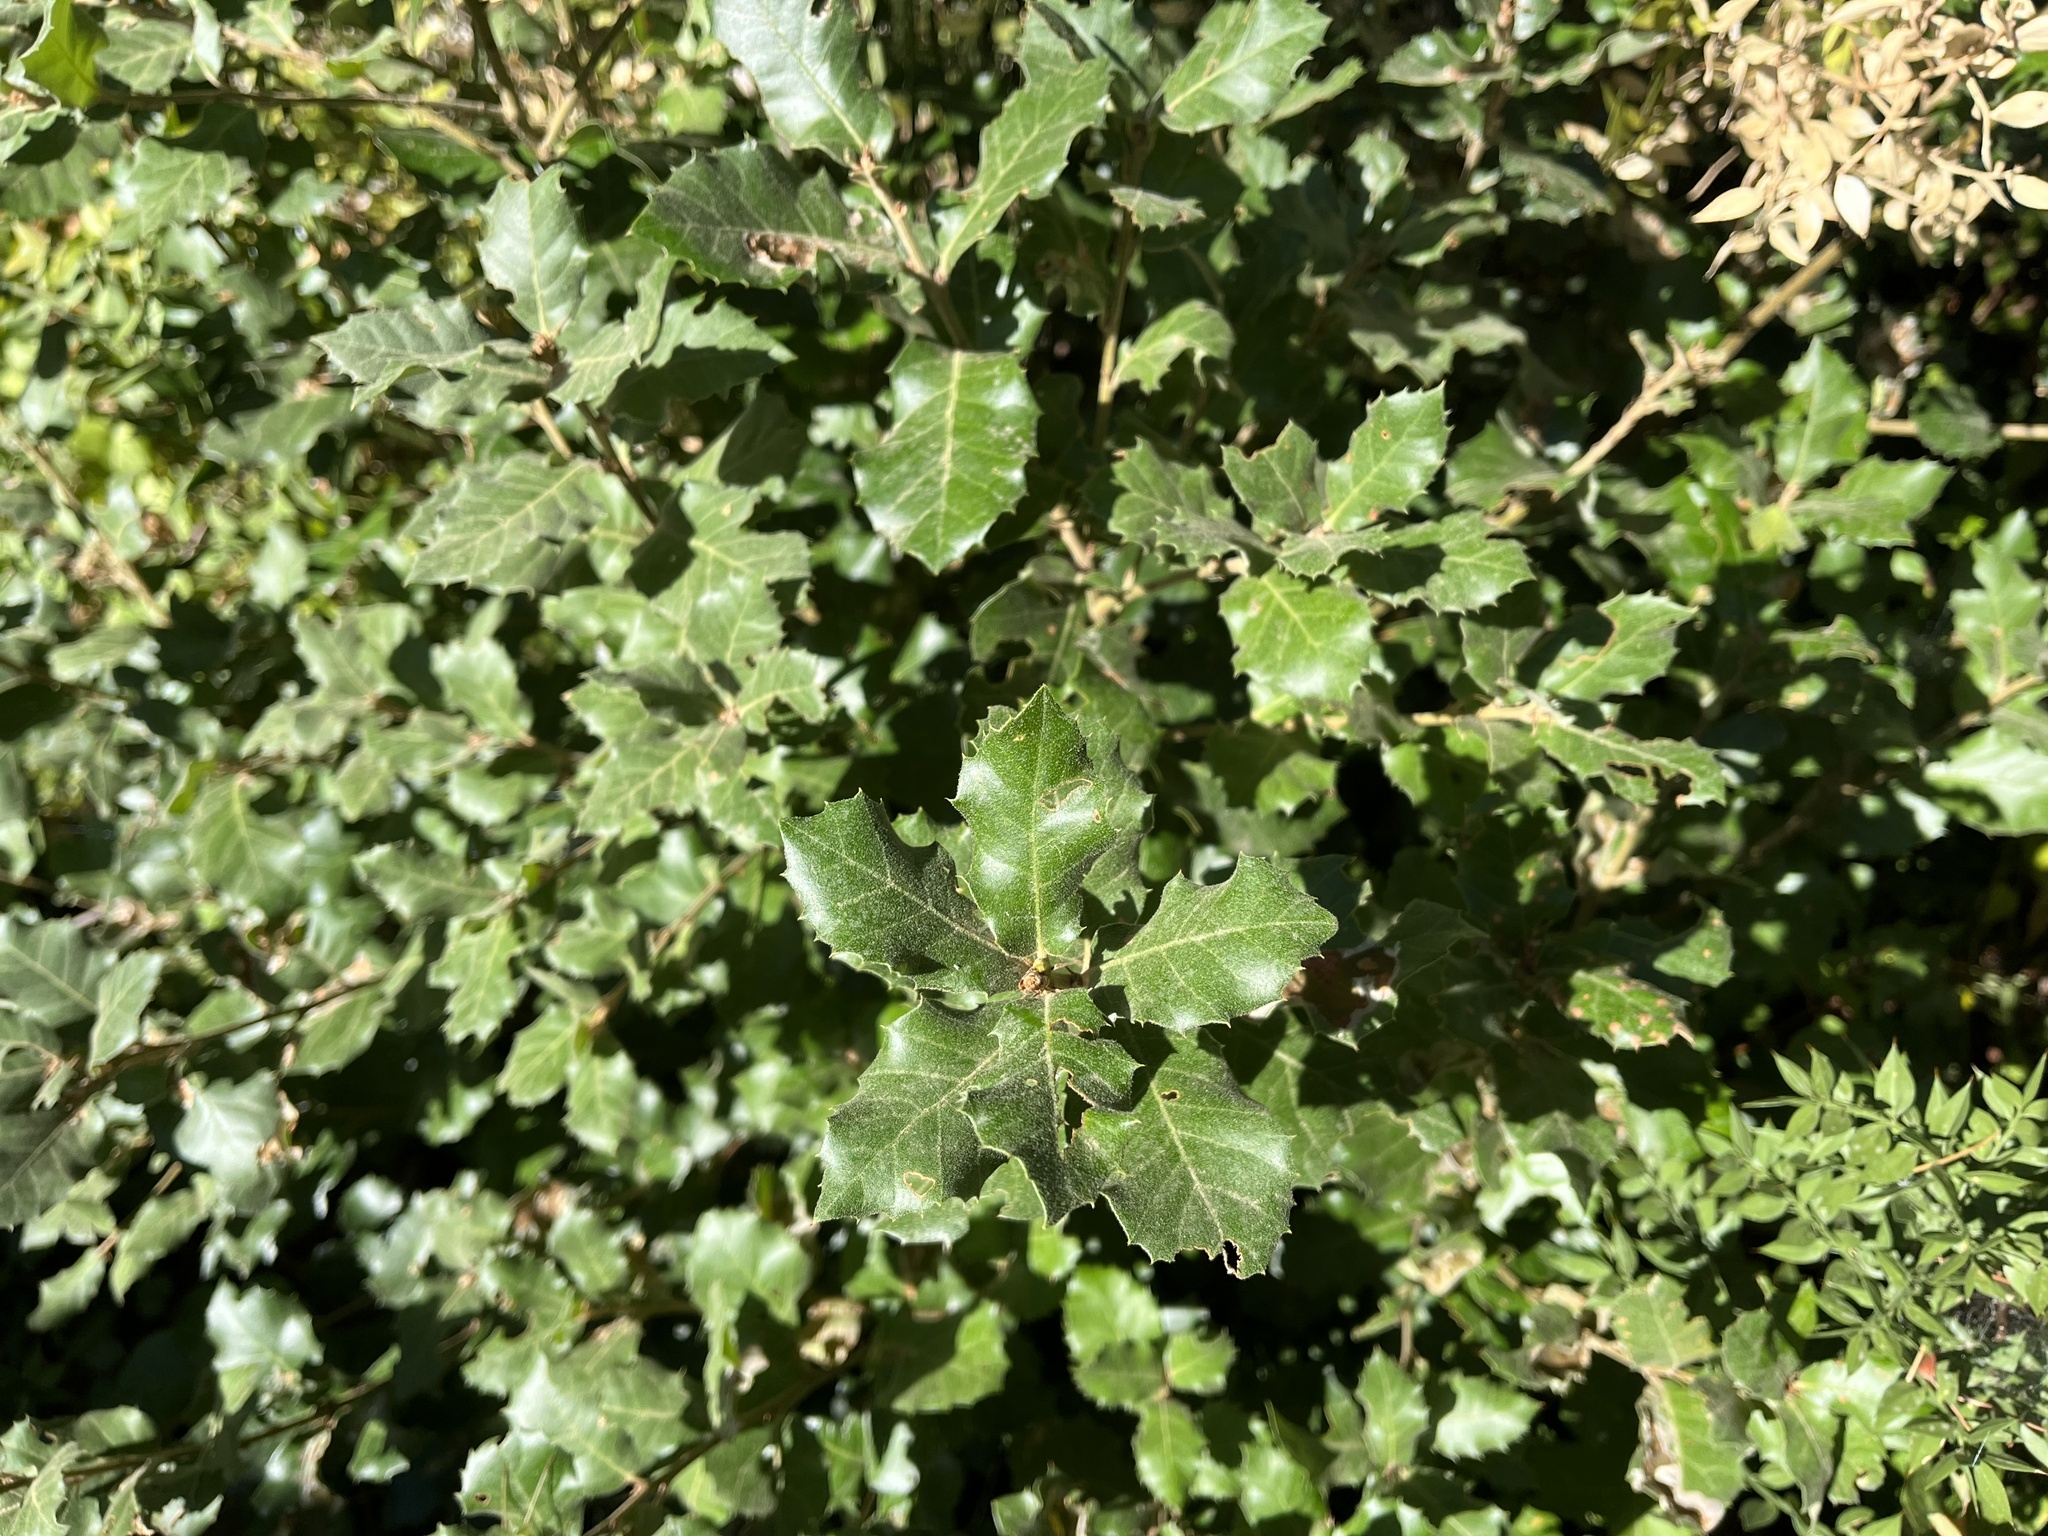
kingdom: Plantae
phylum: Tracheophyta
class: Magnoliopsida
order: Fagales
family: Fagaceae
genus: Quercus
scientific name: Quercus ilex
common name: Evergreen oak
